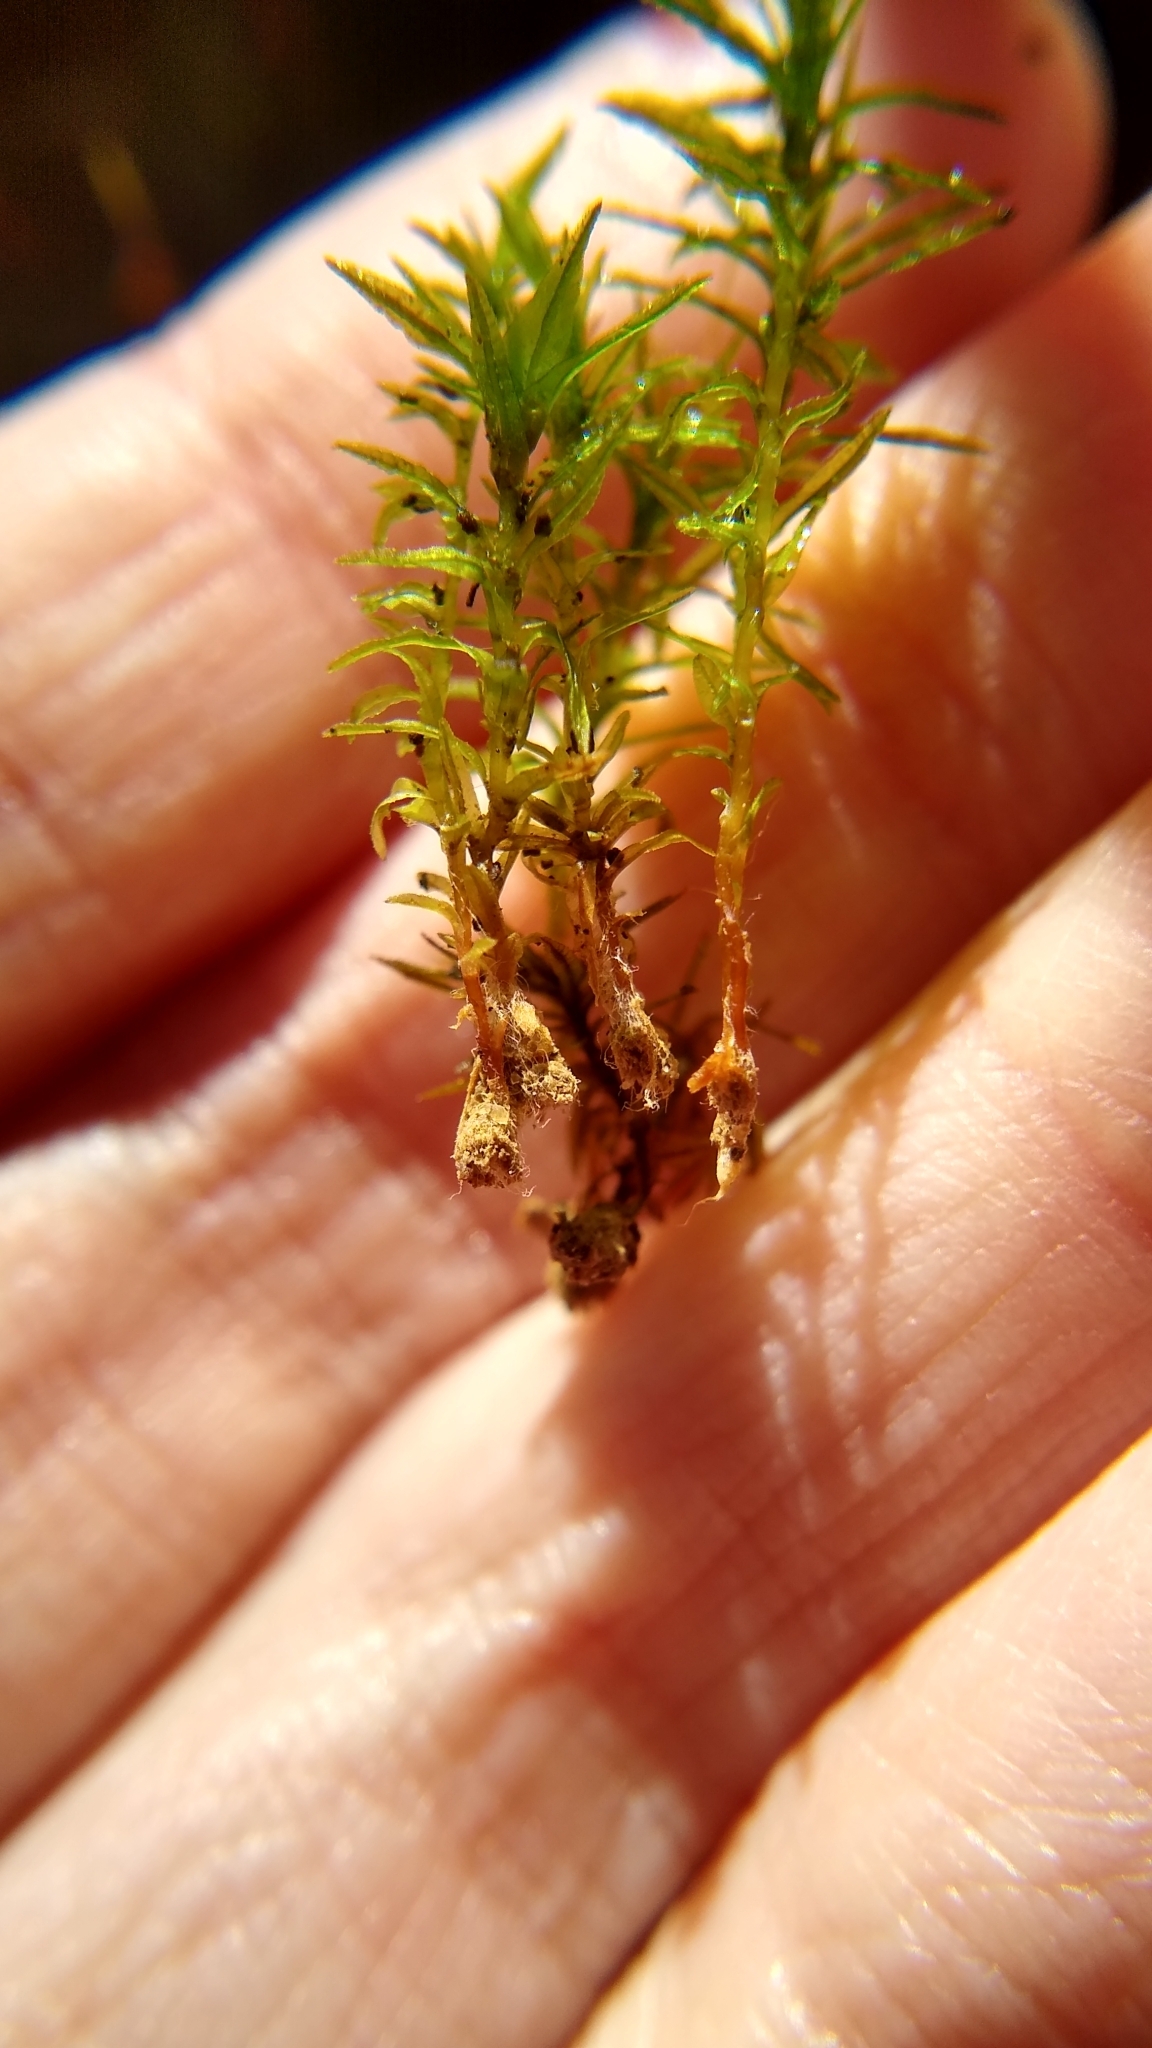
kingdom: Plantae
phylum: Bryophyta
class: Polytrichopsida
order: Polytrichales
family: Polytrichaceae
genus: Atrichum
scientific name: Atrichum angustatum
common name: Lesser smoothcap
